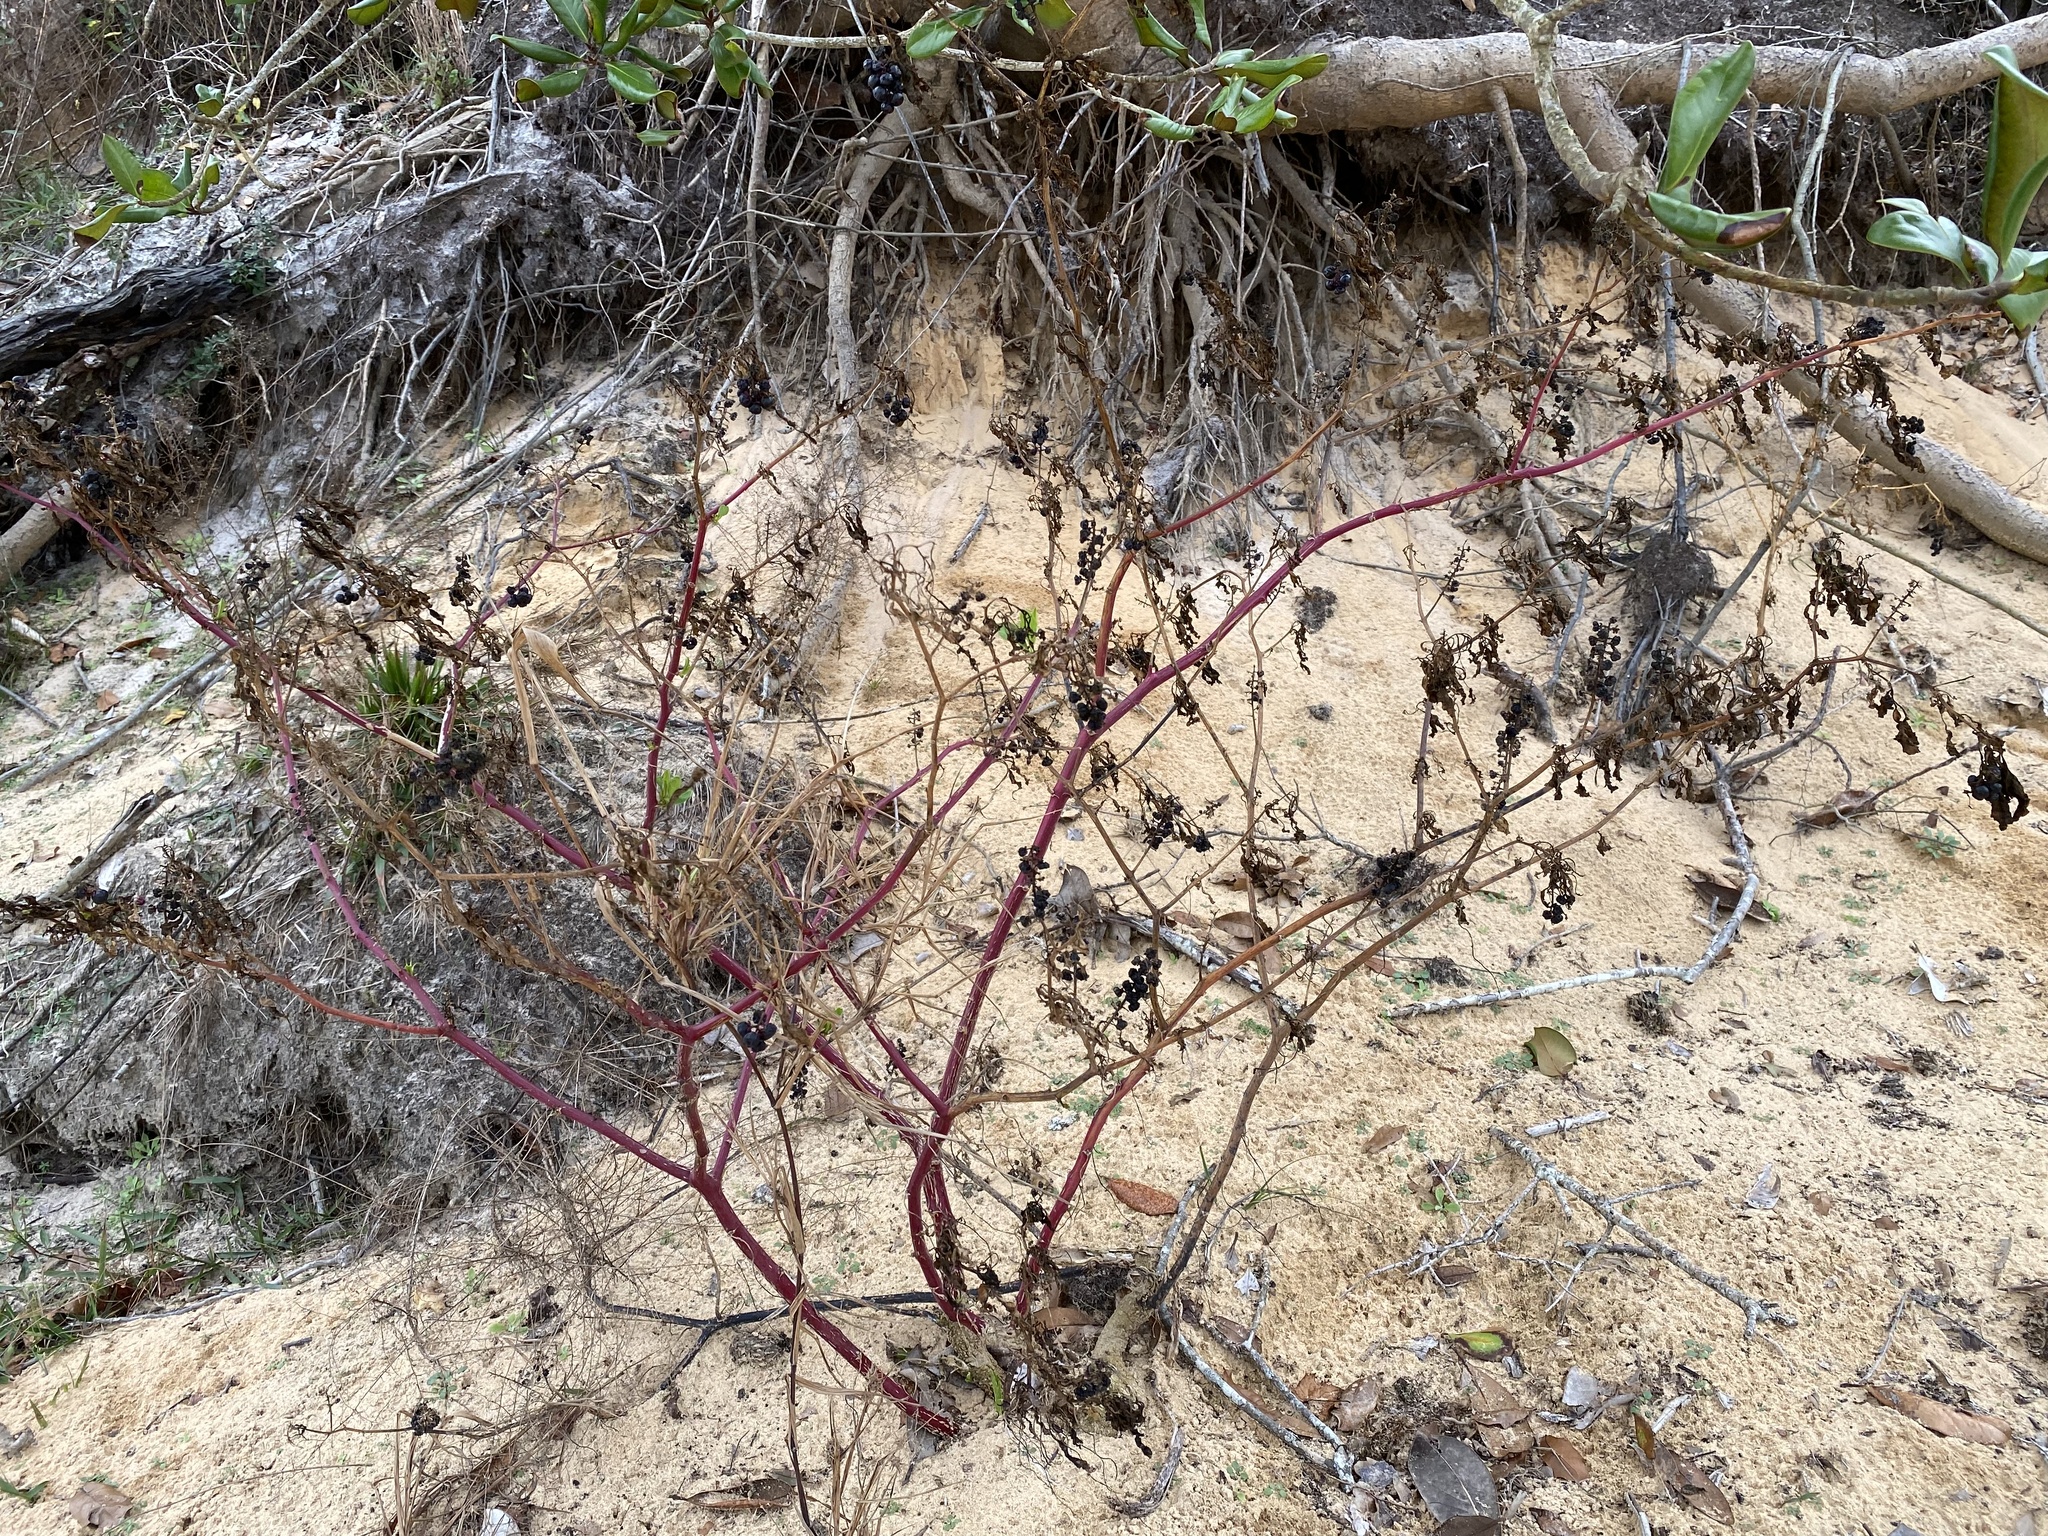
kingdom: Plantae
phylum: Tracheophyta
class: Magnoliopsida
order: Caryophyllales
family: Phytolaccaceae
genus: Phytolacca
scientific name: Phytolacca americana
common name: American pokeweed
